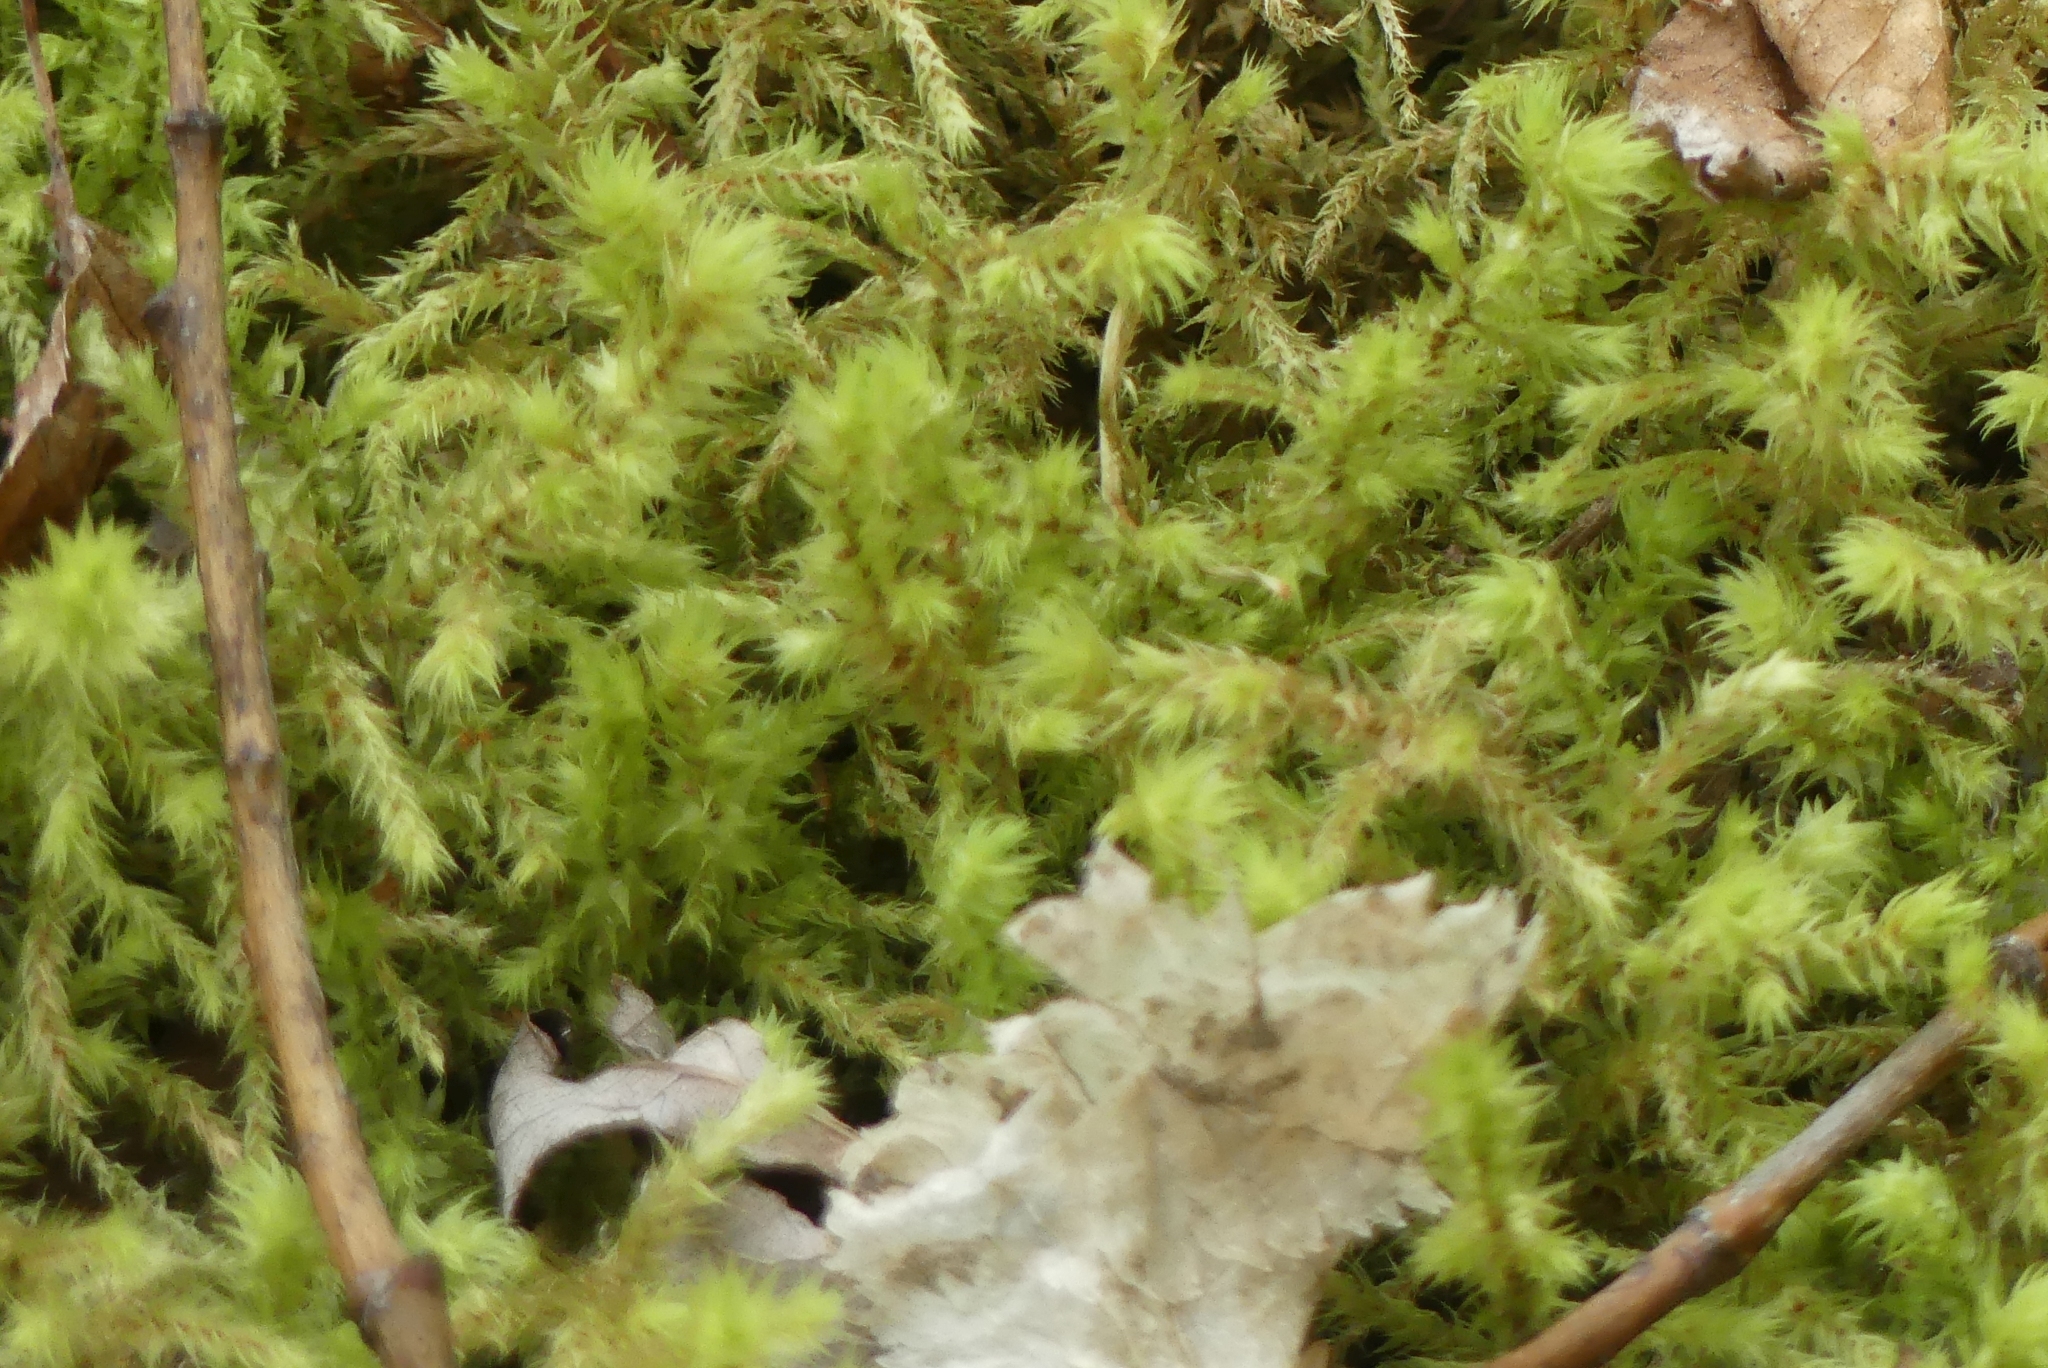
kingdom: Plantae
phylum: Bryophyta
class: Bryopsida
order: Hypnales
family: Hylocomiaceae
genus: Hylocomiadelphus
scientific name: Hylocomiadelphus triquetrus
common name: Rough goose neck moss
